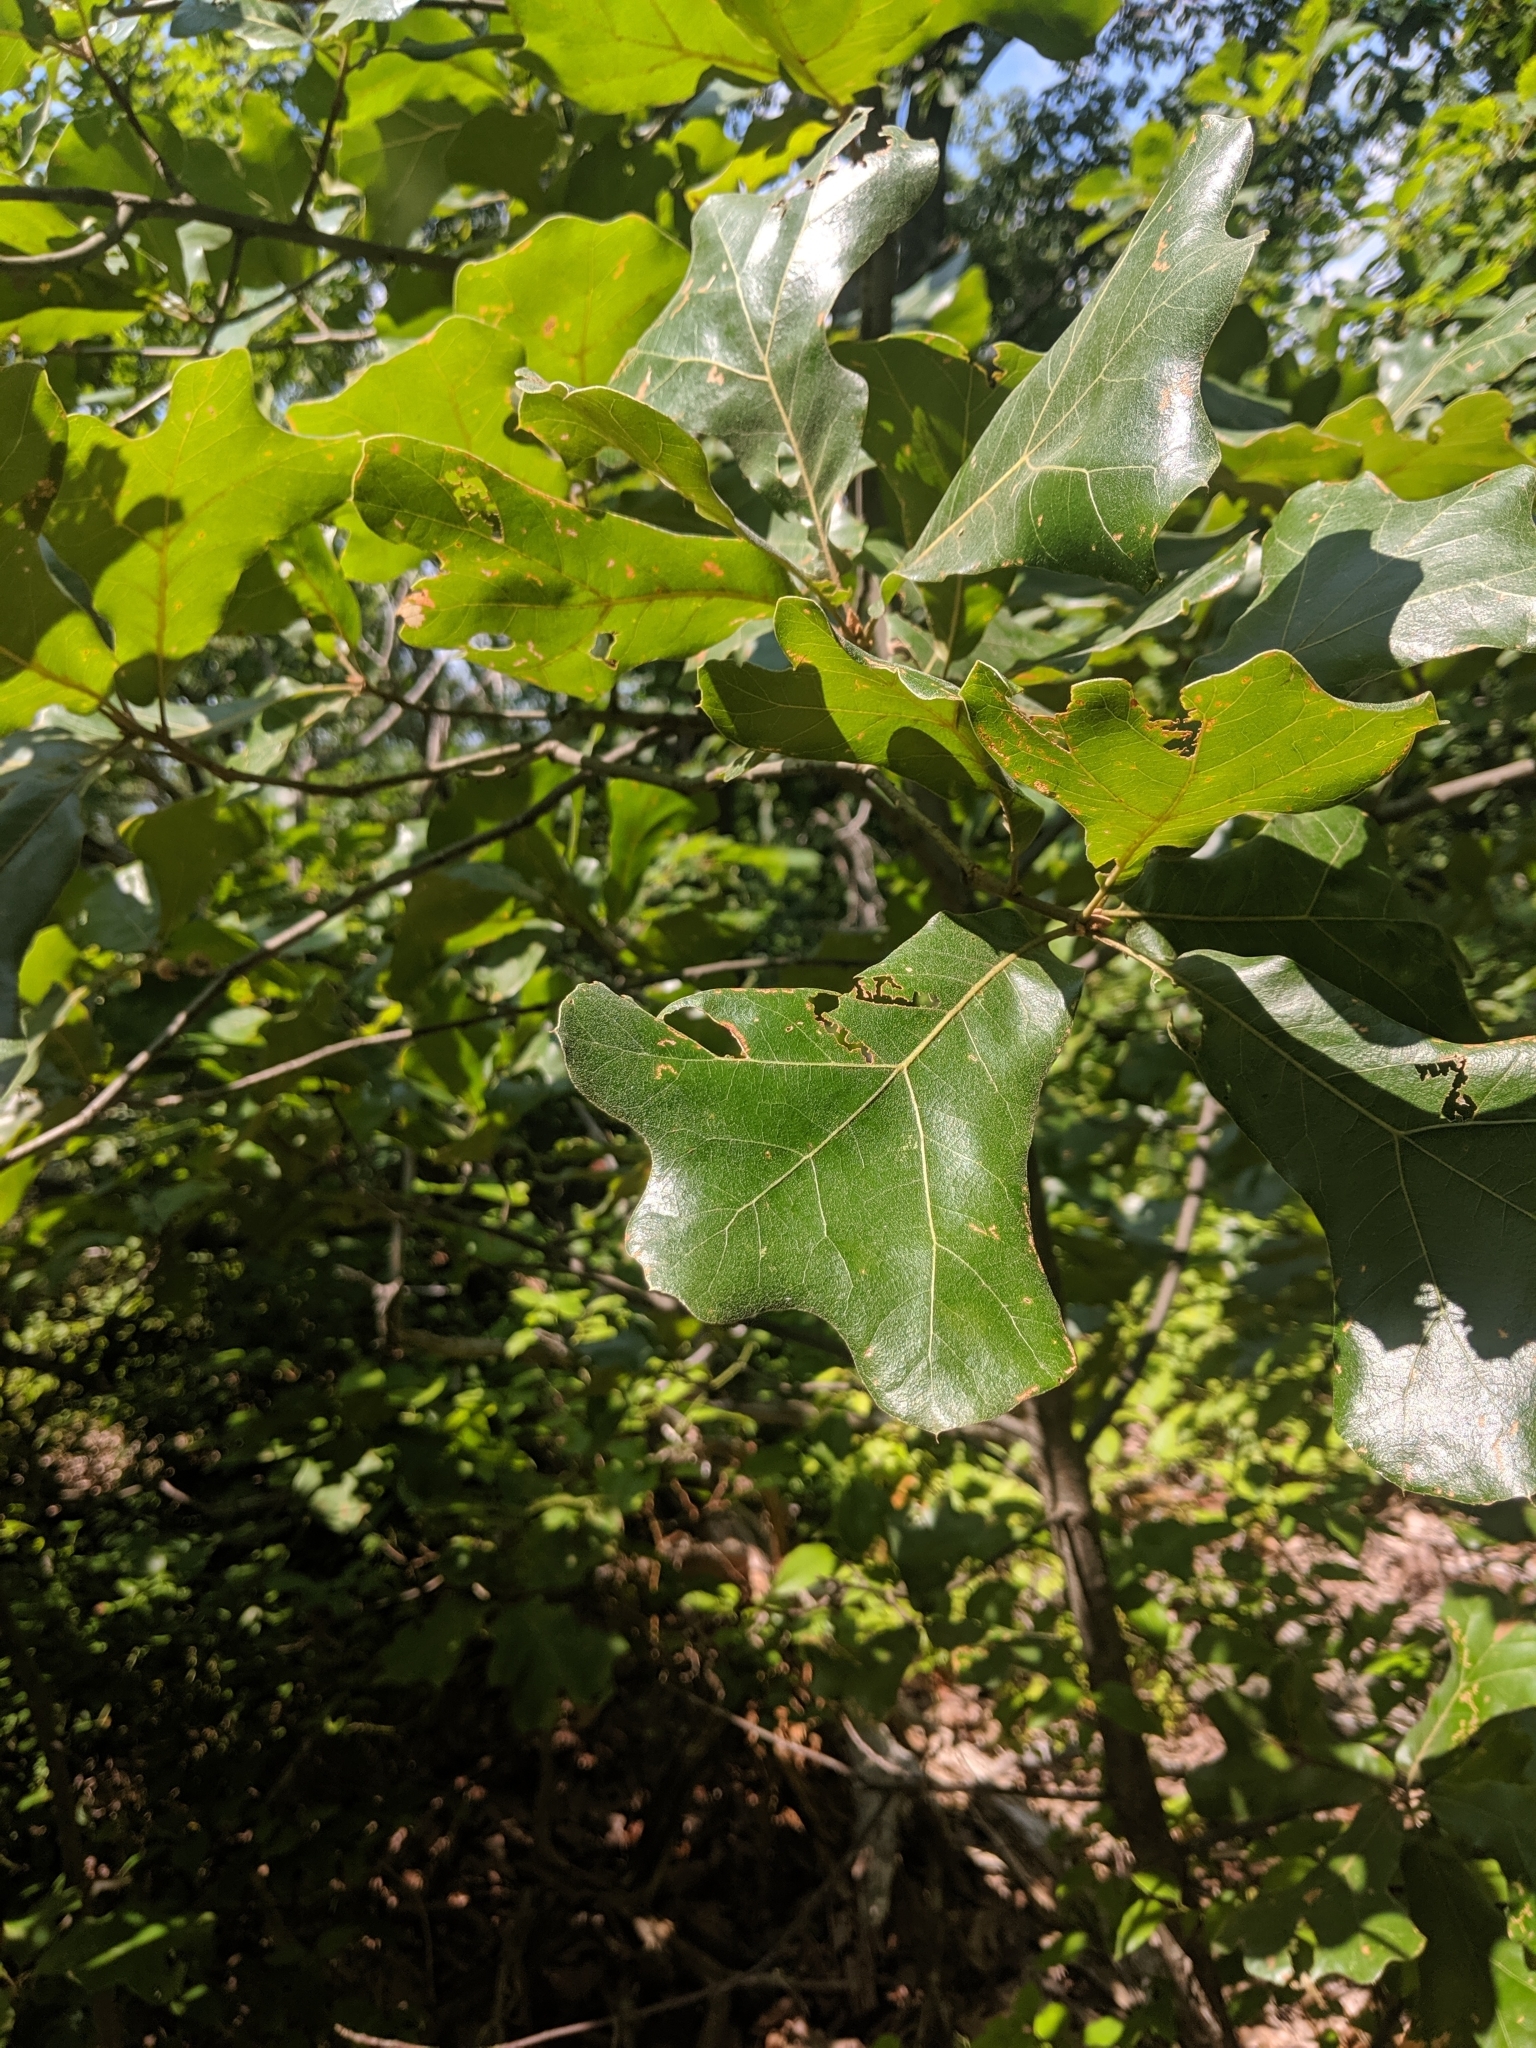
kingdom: Plantae
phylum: Tracheophyta
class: Magnoliopsida
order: Fagales
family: Fagaceae
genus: Quercus
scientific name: Quercus marilandica
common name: Blackjack oak
